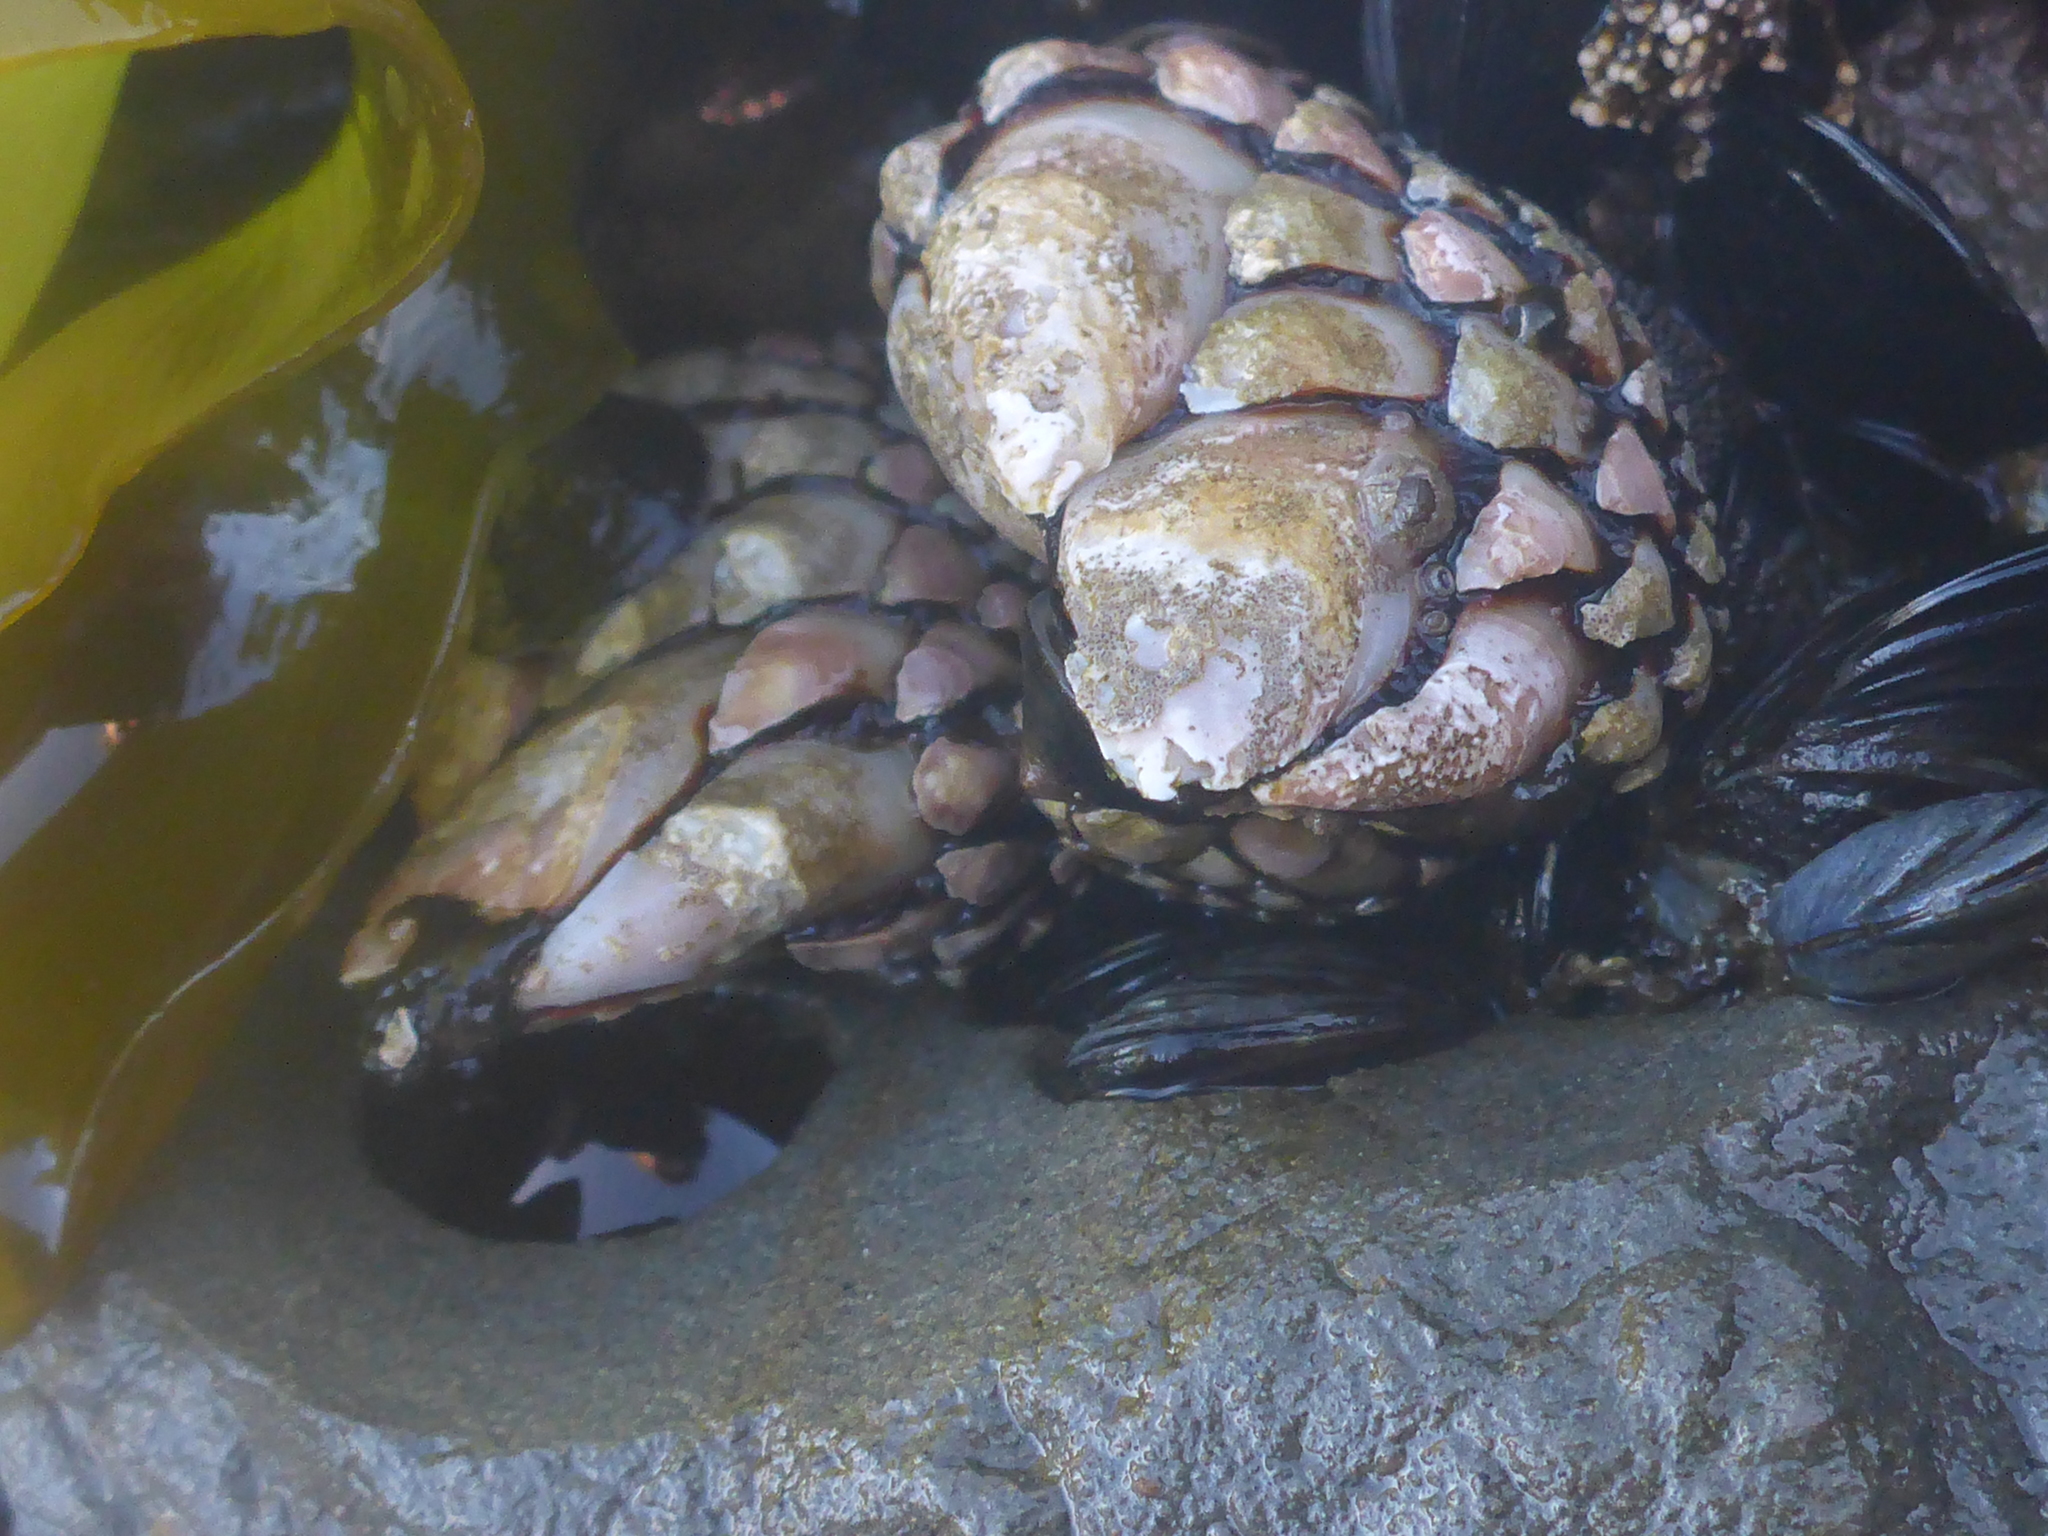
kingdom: Animalia
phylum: Arthropoda
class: Maxillopoda
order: Pedunculata
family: Pollicipedidae
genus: Pollicipes
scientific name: Pollicipes polymerus
